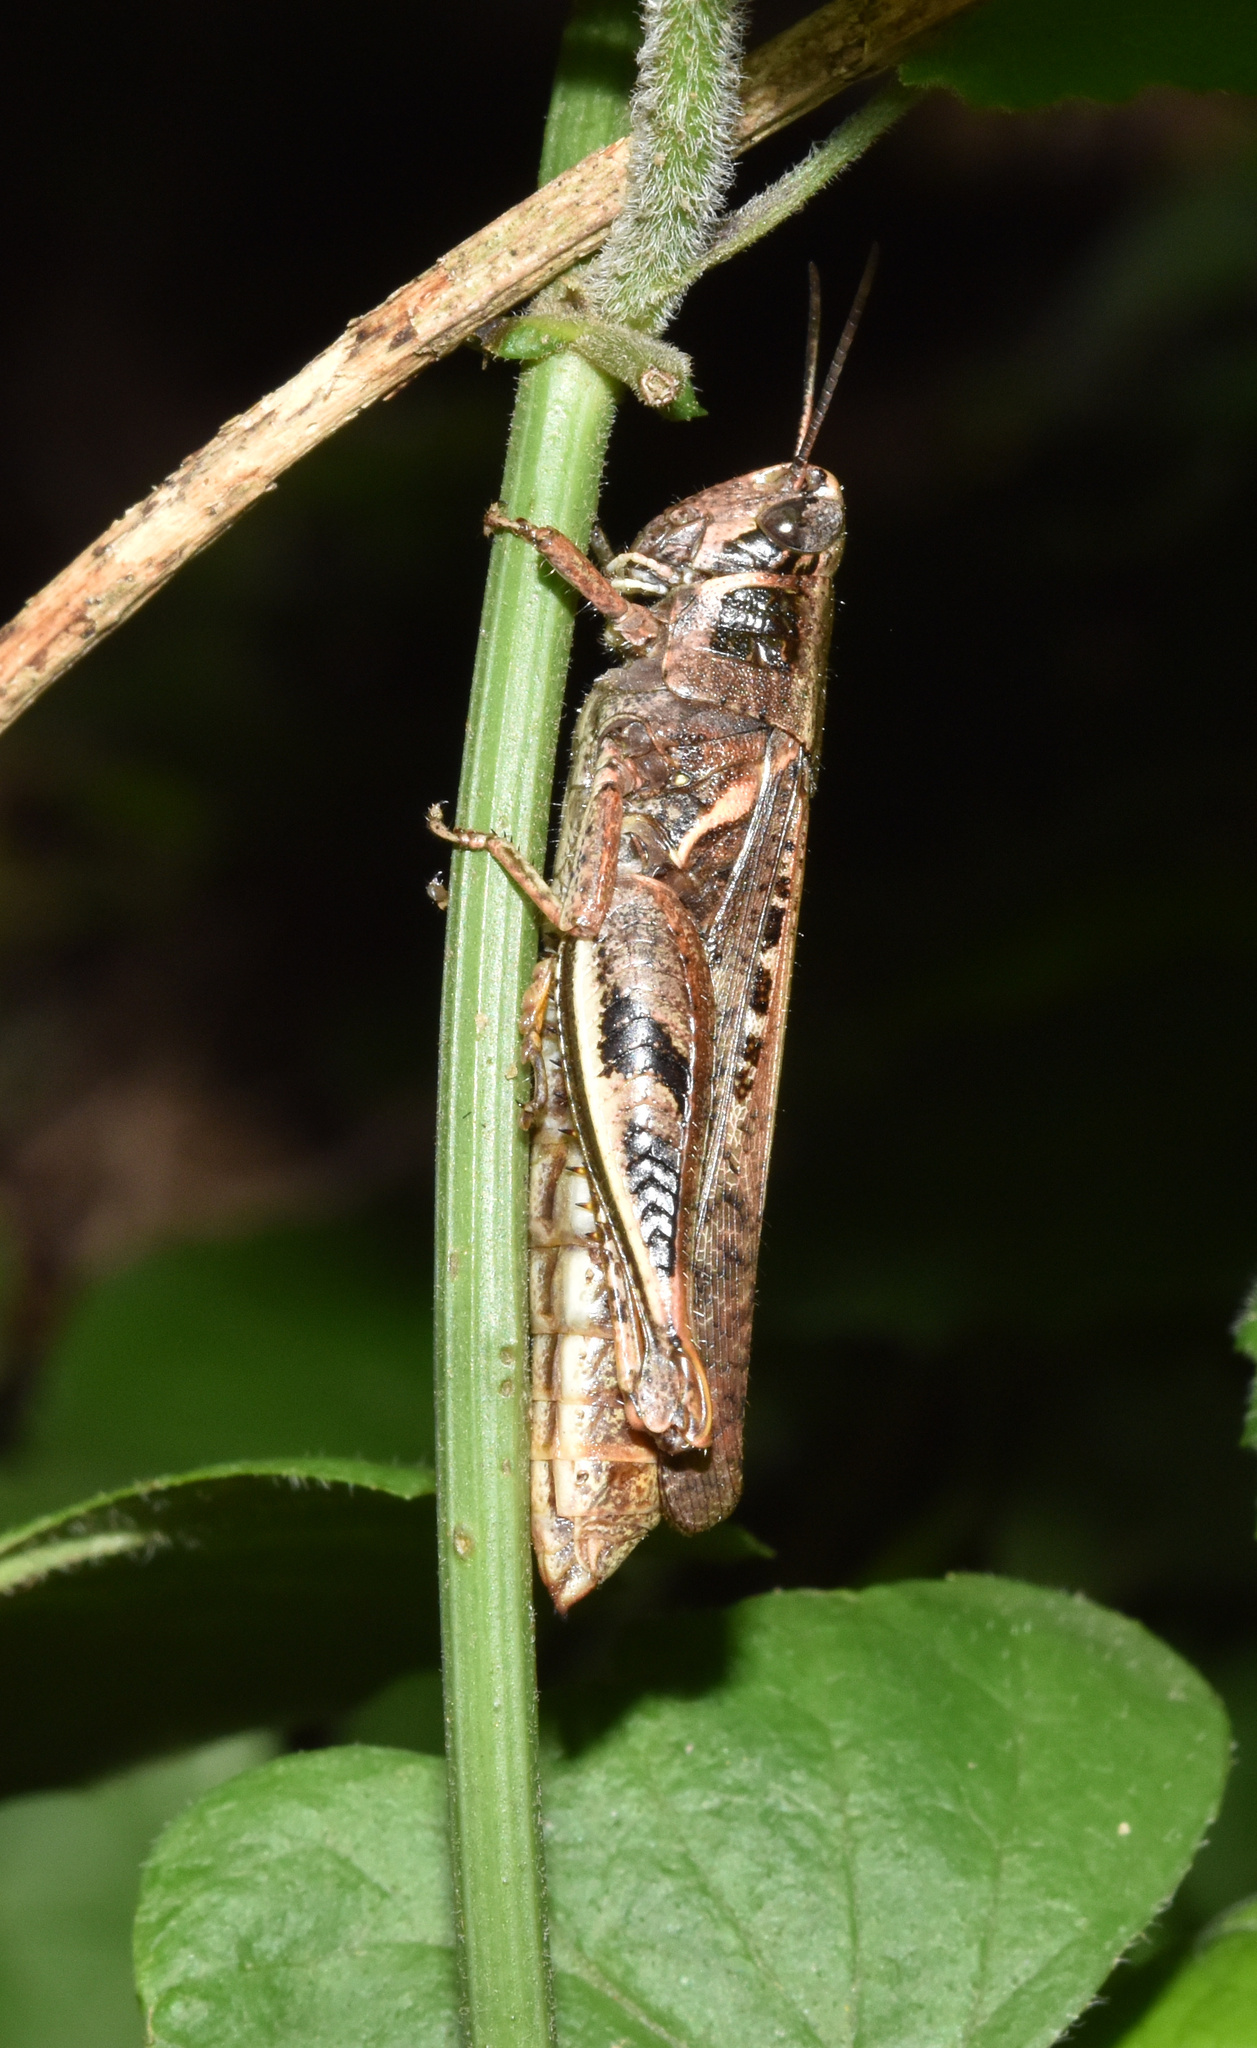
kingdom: Animalia
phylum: Arthropoda
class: Insecta
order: Orthoptera
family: Acrididae
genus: Catantops
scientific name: Catantops melanostictus
